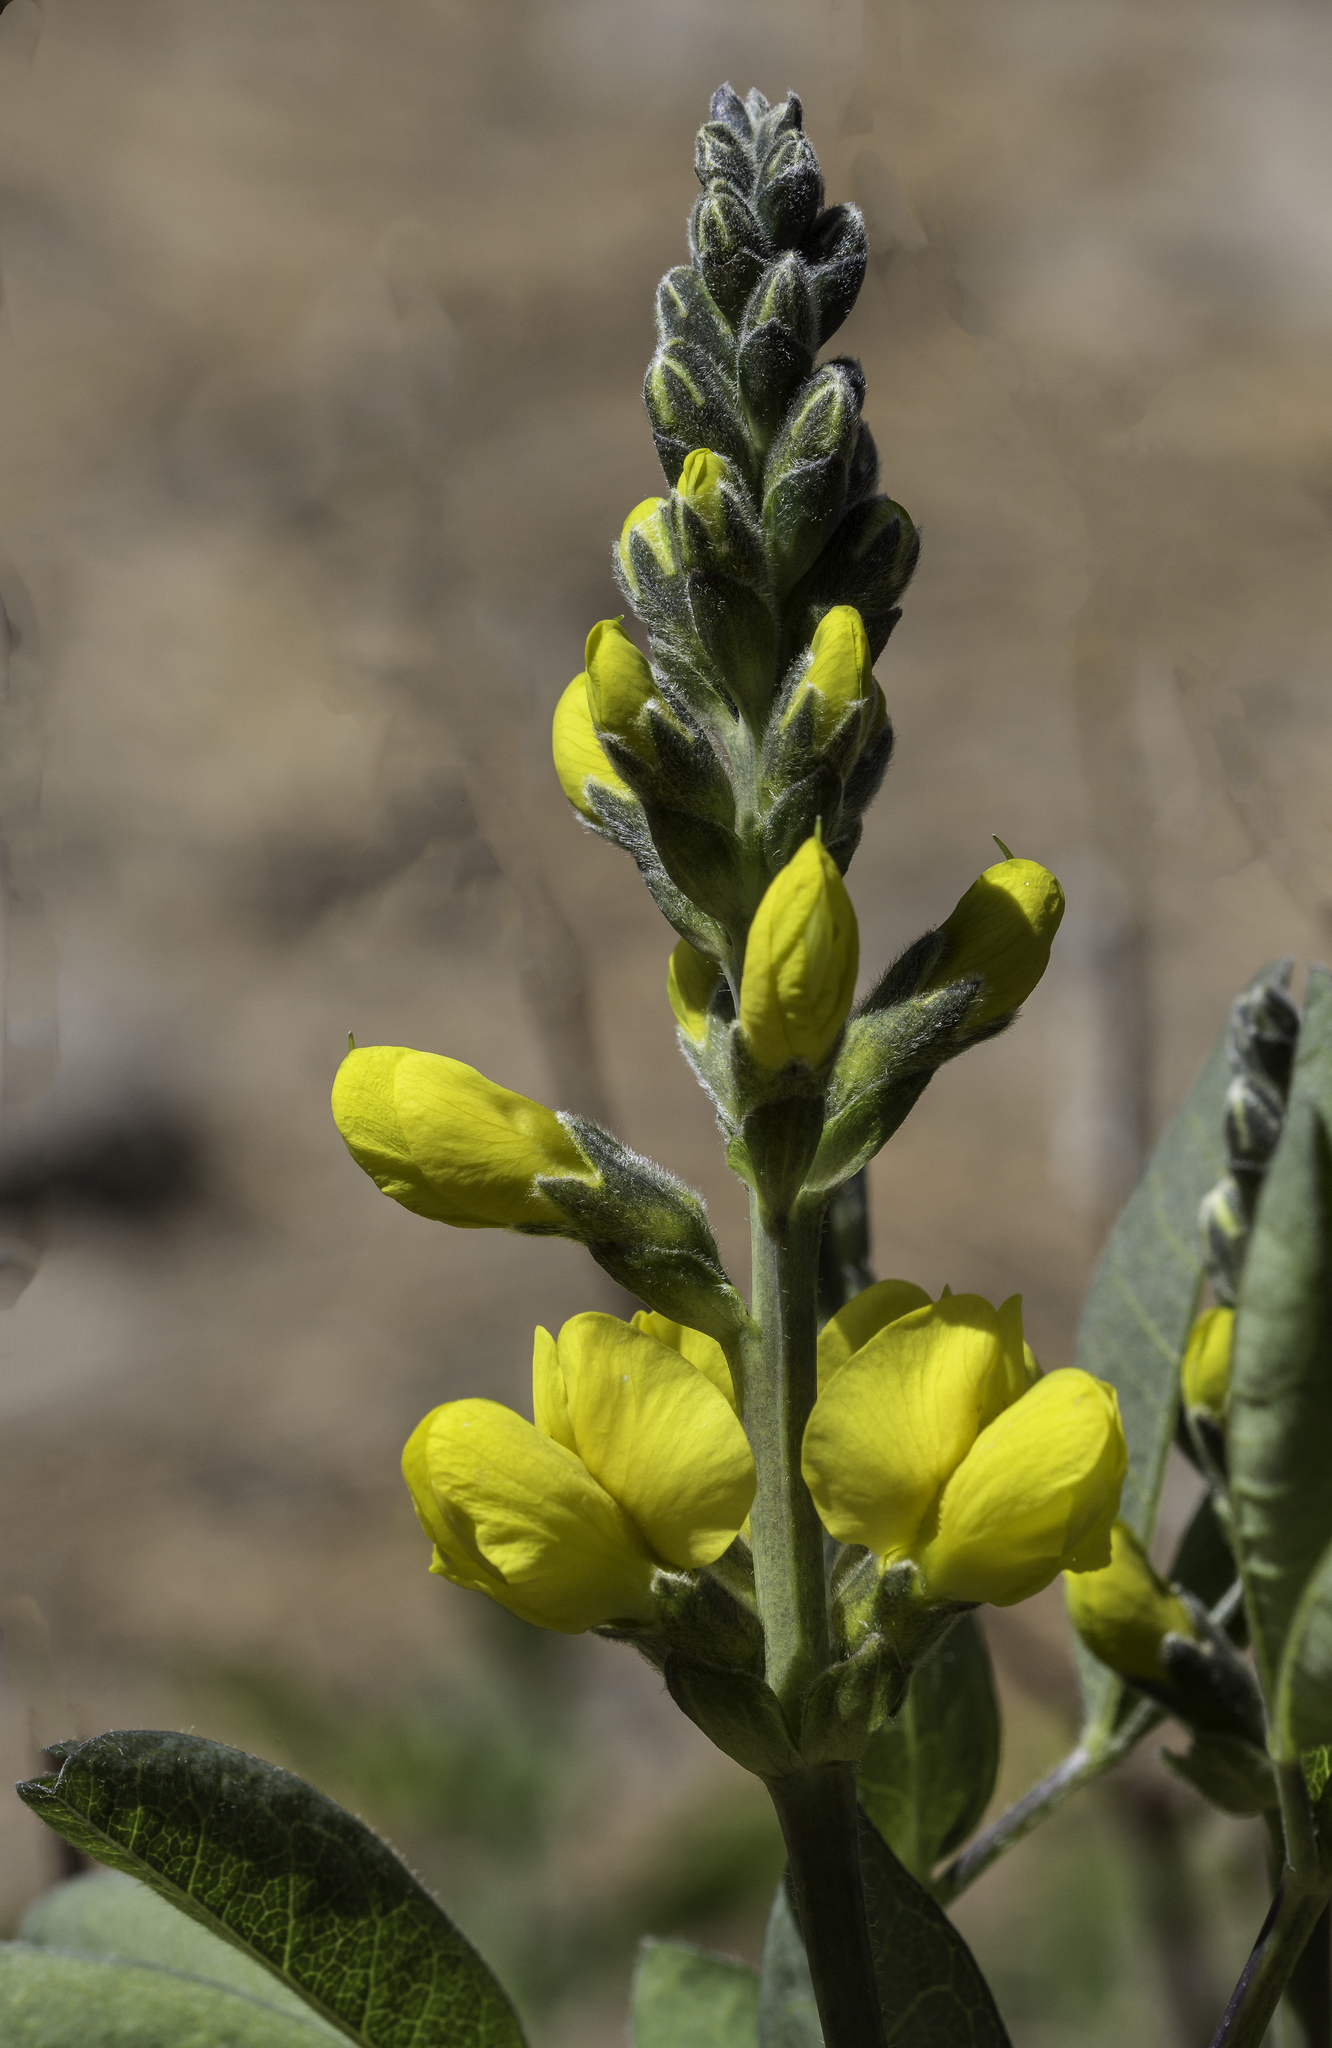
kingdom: Plantae
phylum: Tracheophyta
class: Magnoliopsida
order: Fabales
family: Fabaceae
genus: Thermopsis
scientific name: Thermopsis montana
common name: False lupin
